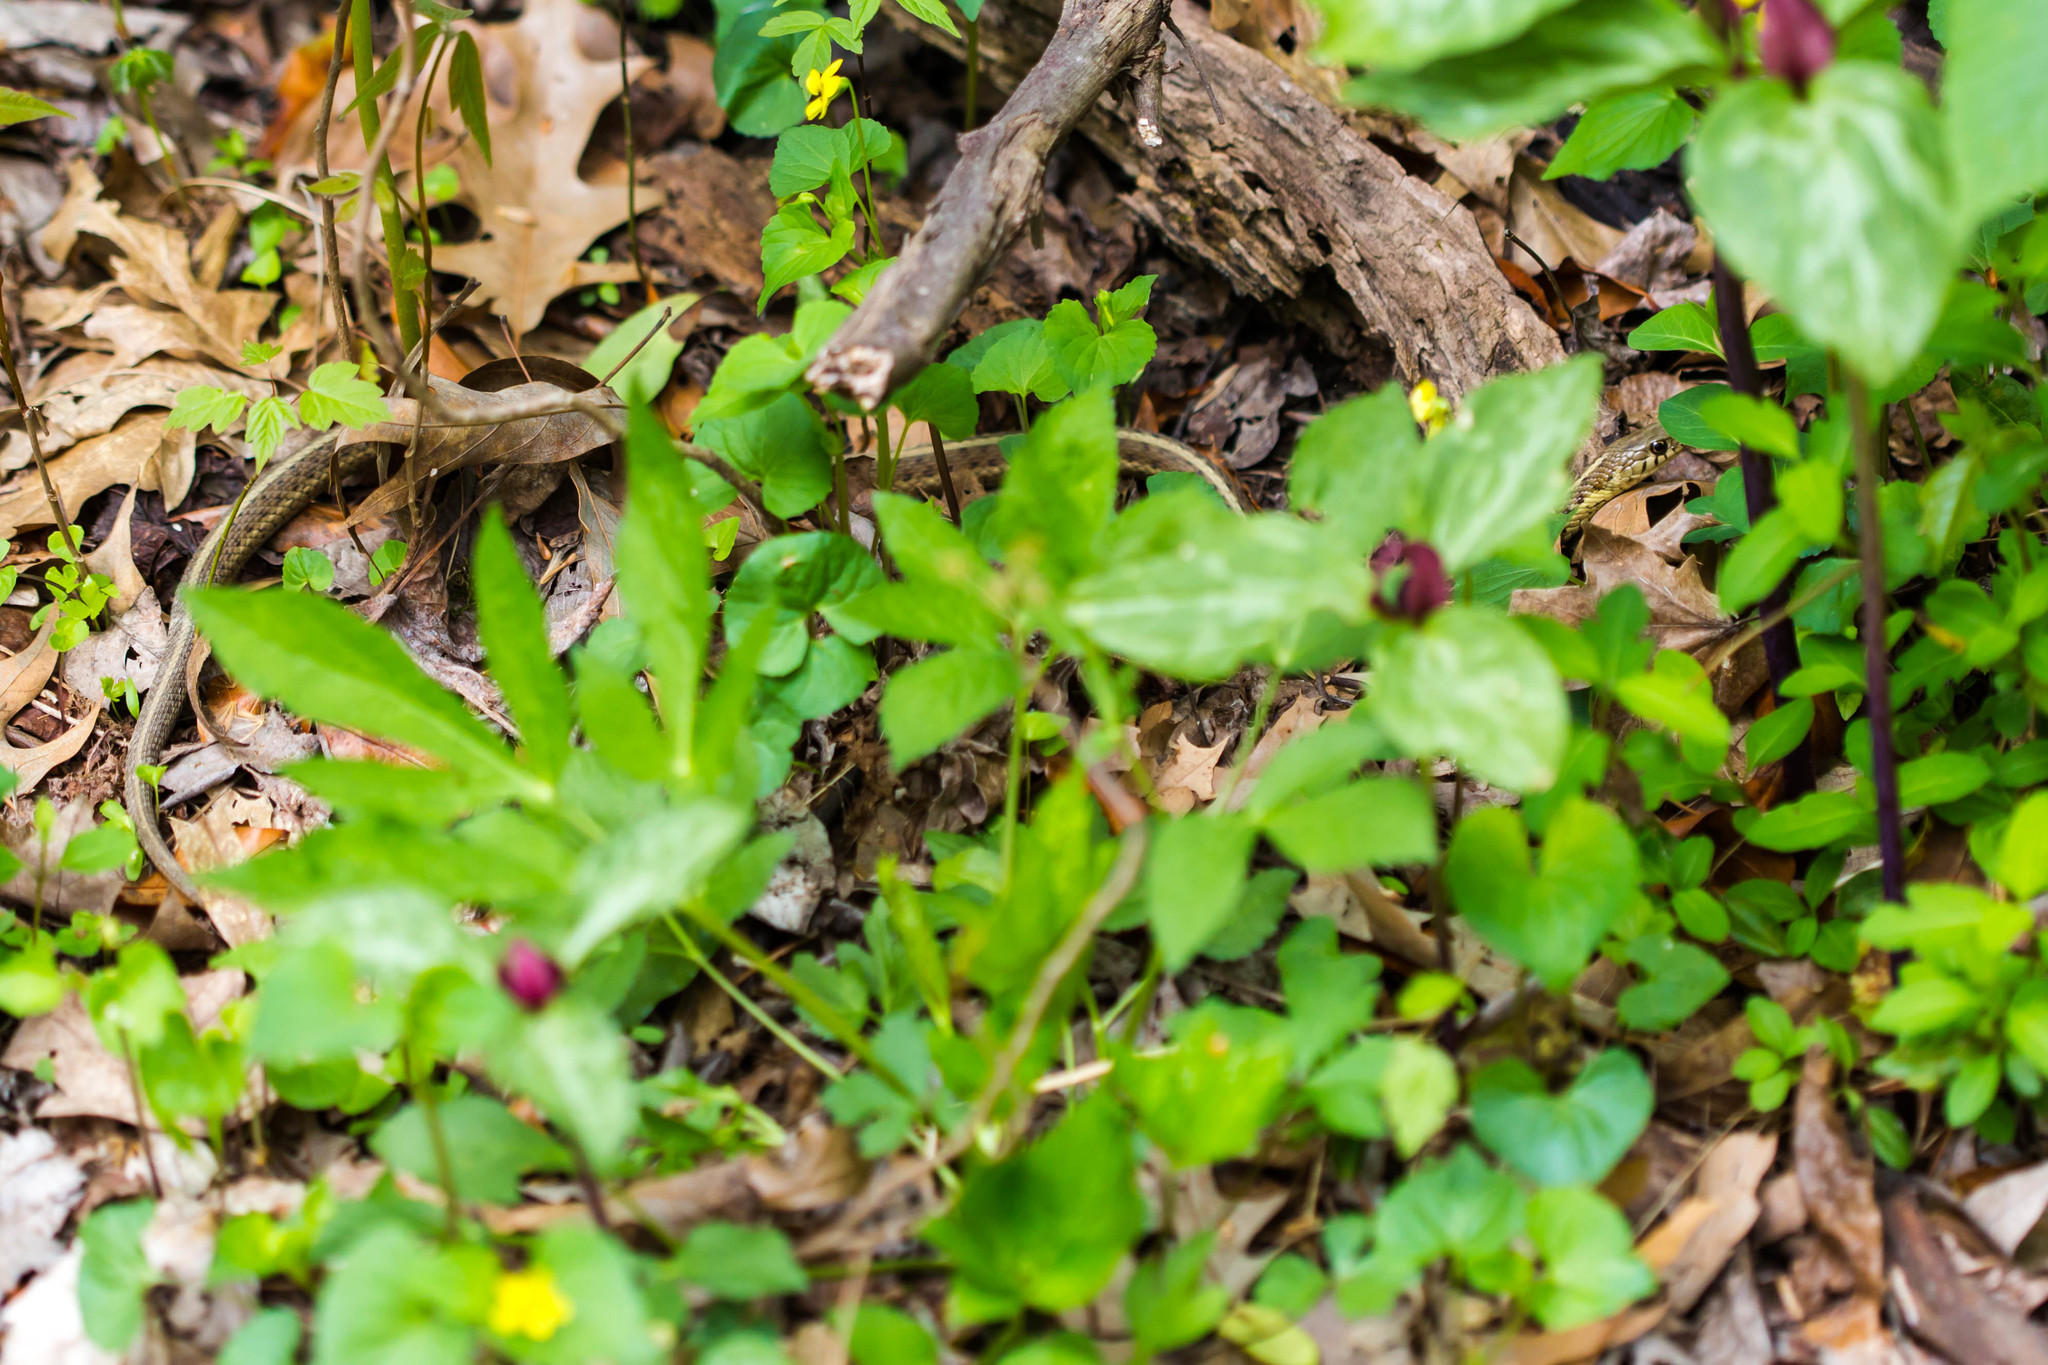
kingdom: Animalia
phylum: Chordata
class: Squamata
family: Colubridae
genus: Thamnophis
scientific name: Thamnophis sirtalis
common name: Common garter snake
